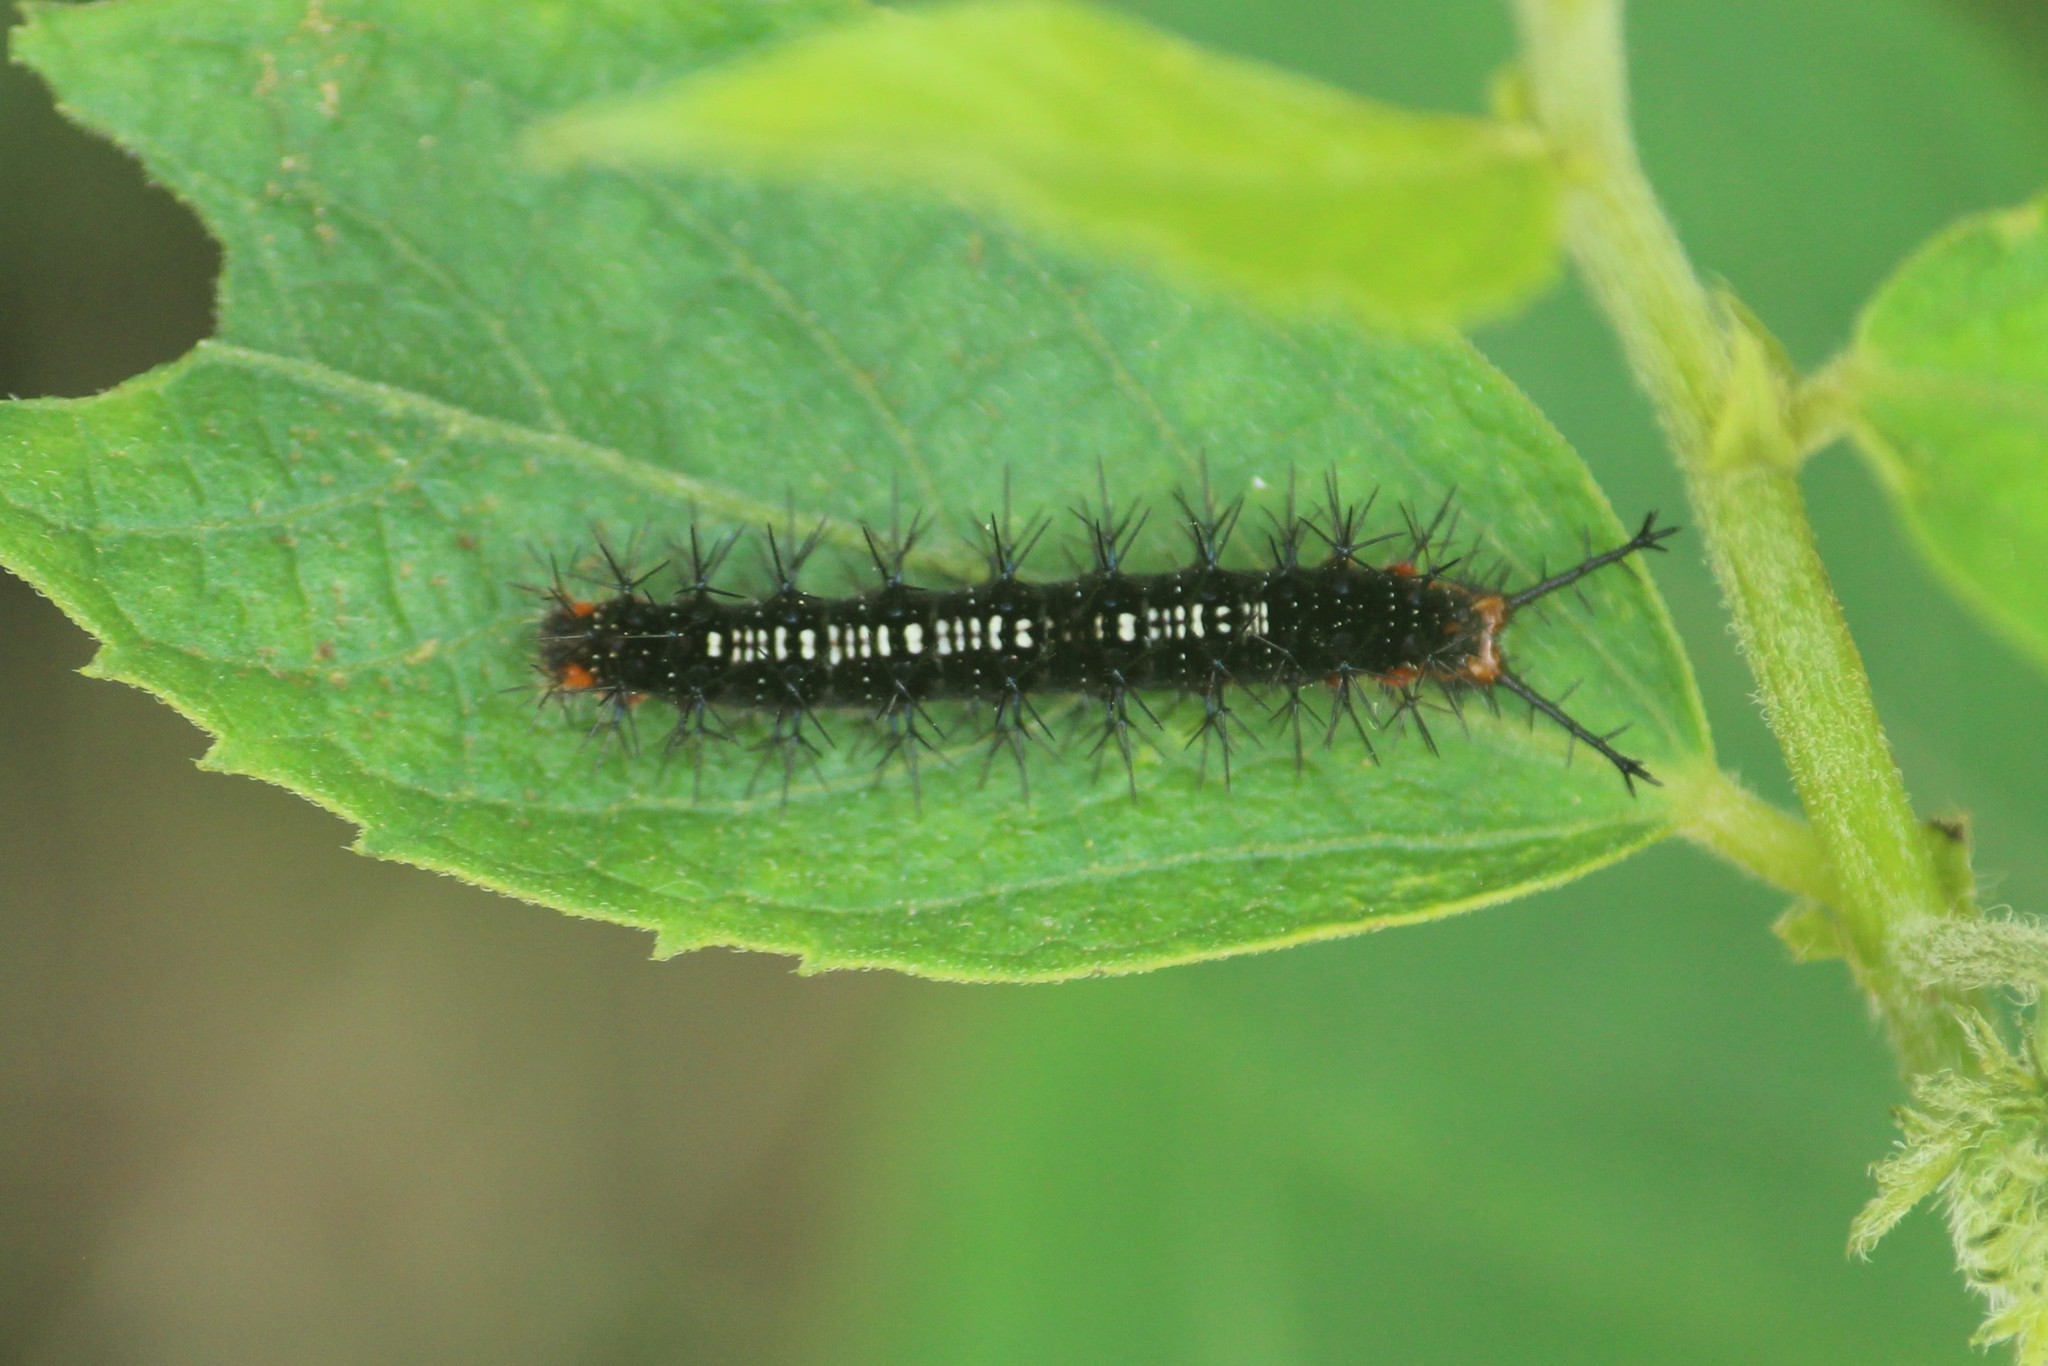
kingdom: Animalia
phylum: Arthropoda
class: Insecta
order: Lepidoptera
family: Nymphalidae
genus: Ariadne
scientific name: Ariadne ariadne
